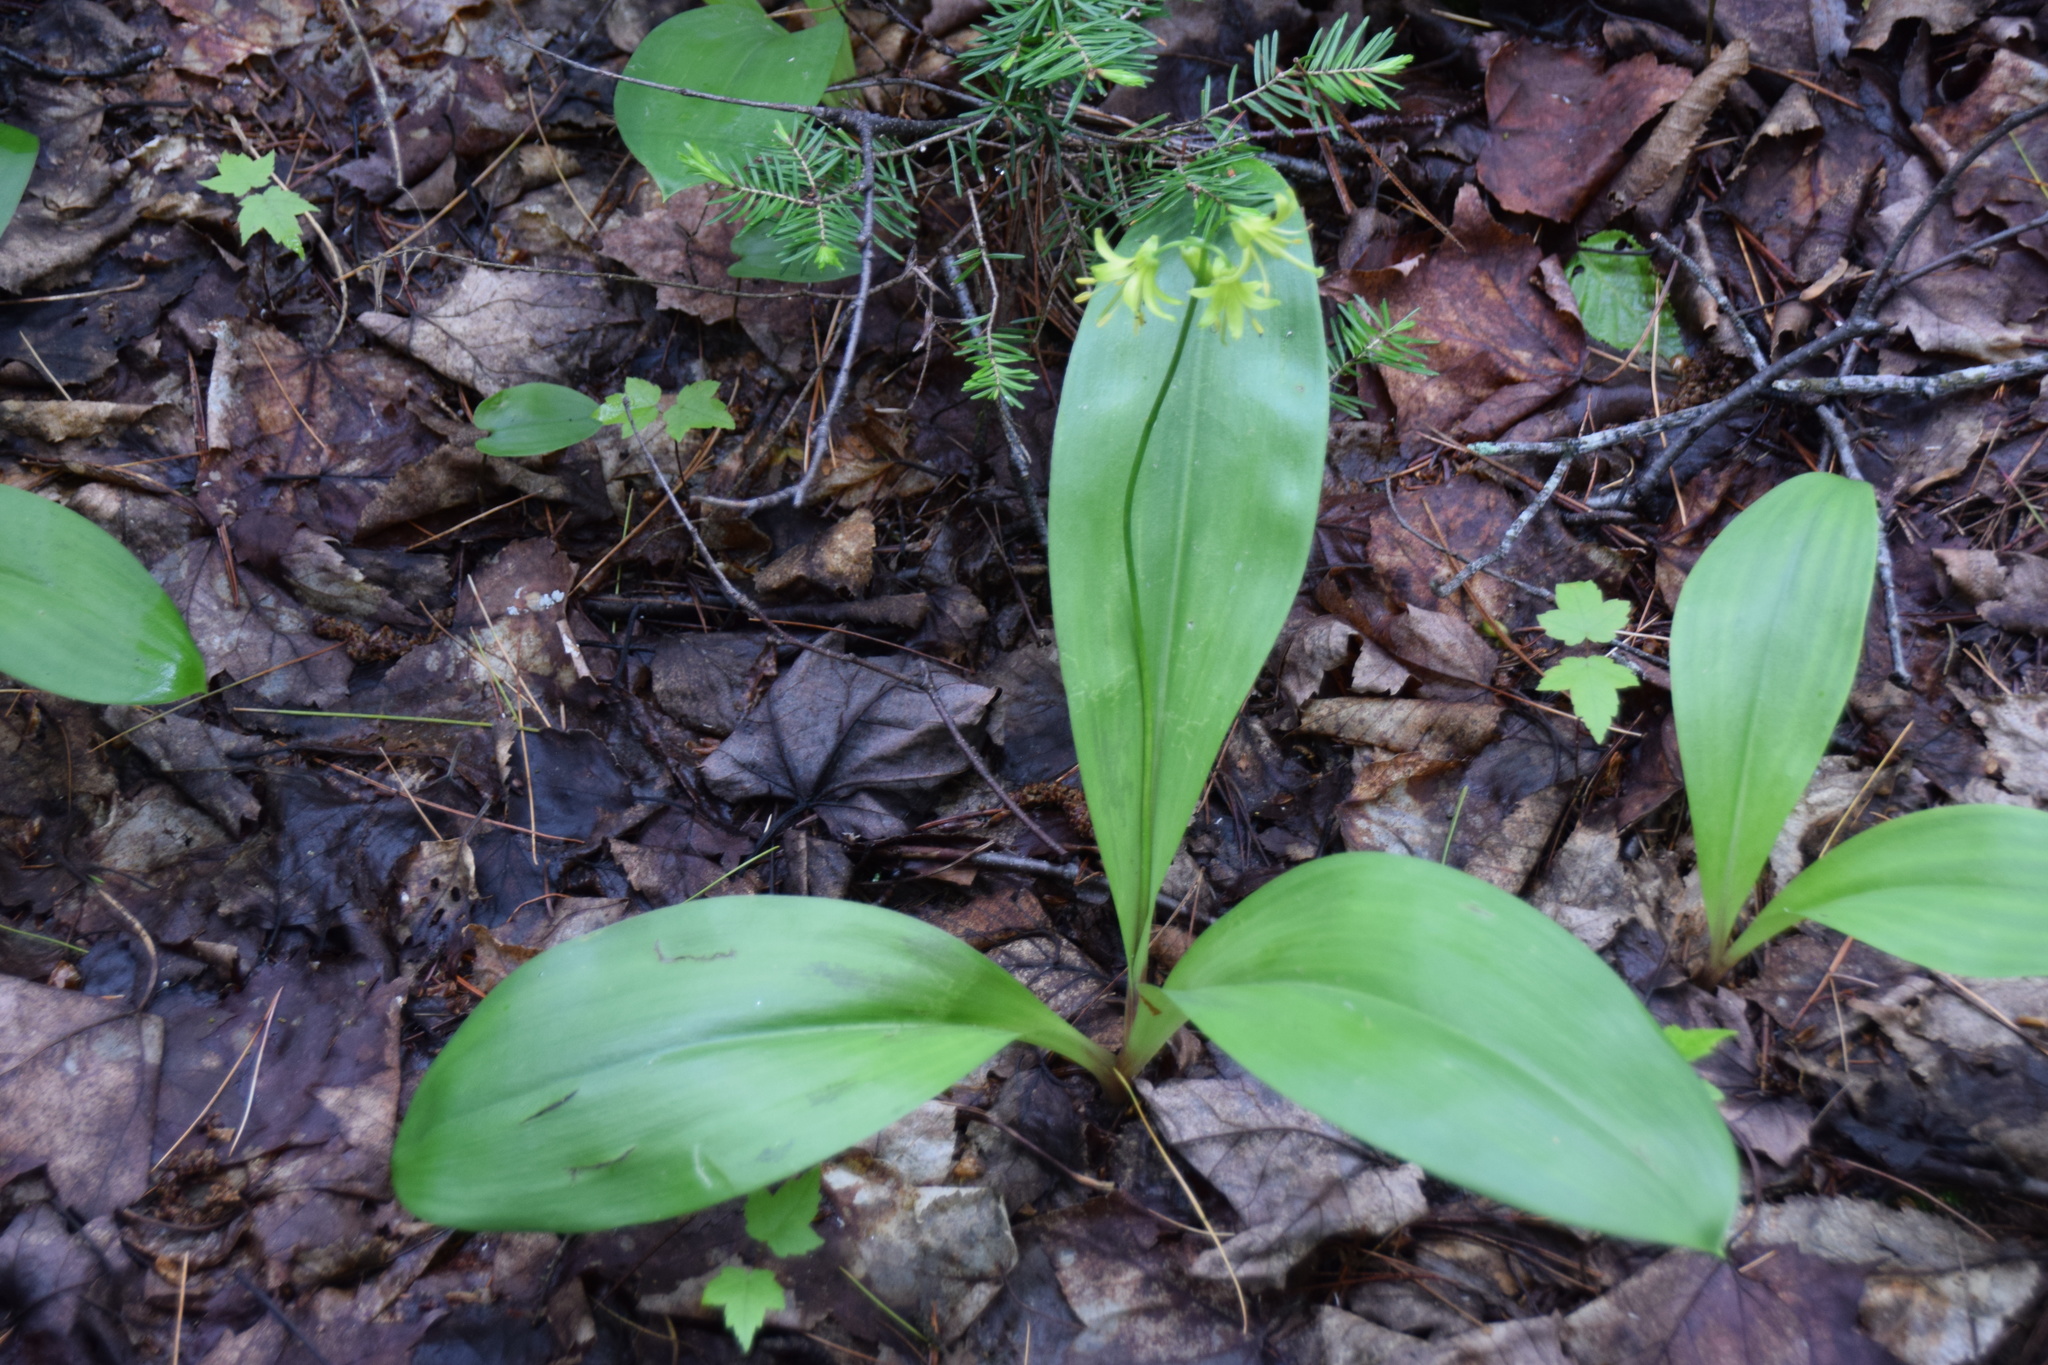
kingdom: Plantae
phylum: Tracheophyta
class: Liliopsida
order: Liliales
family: Liliaceae
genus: Clintonia
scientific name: Clintonia borealis
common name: Yellow clintonia
